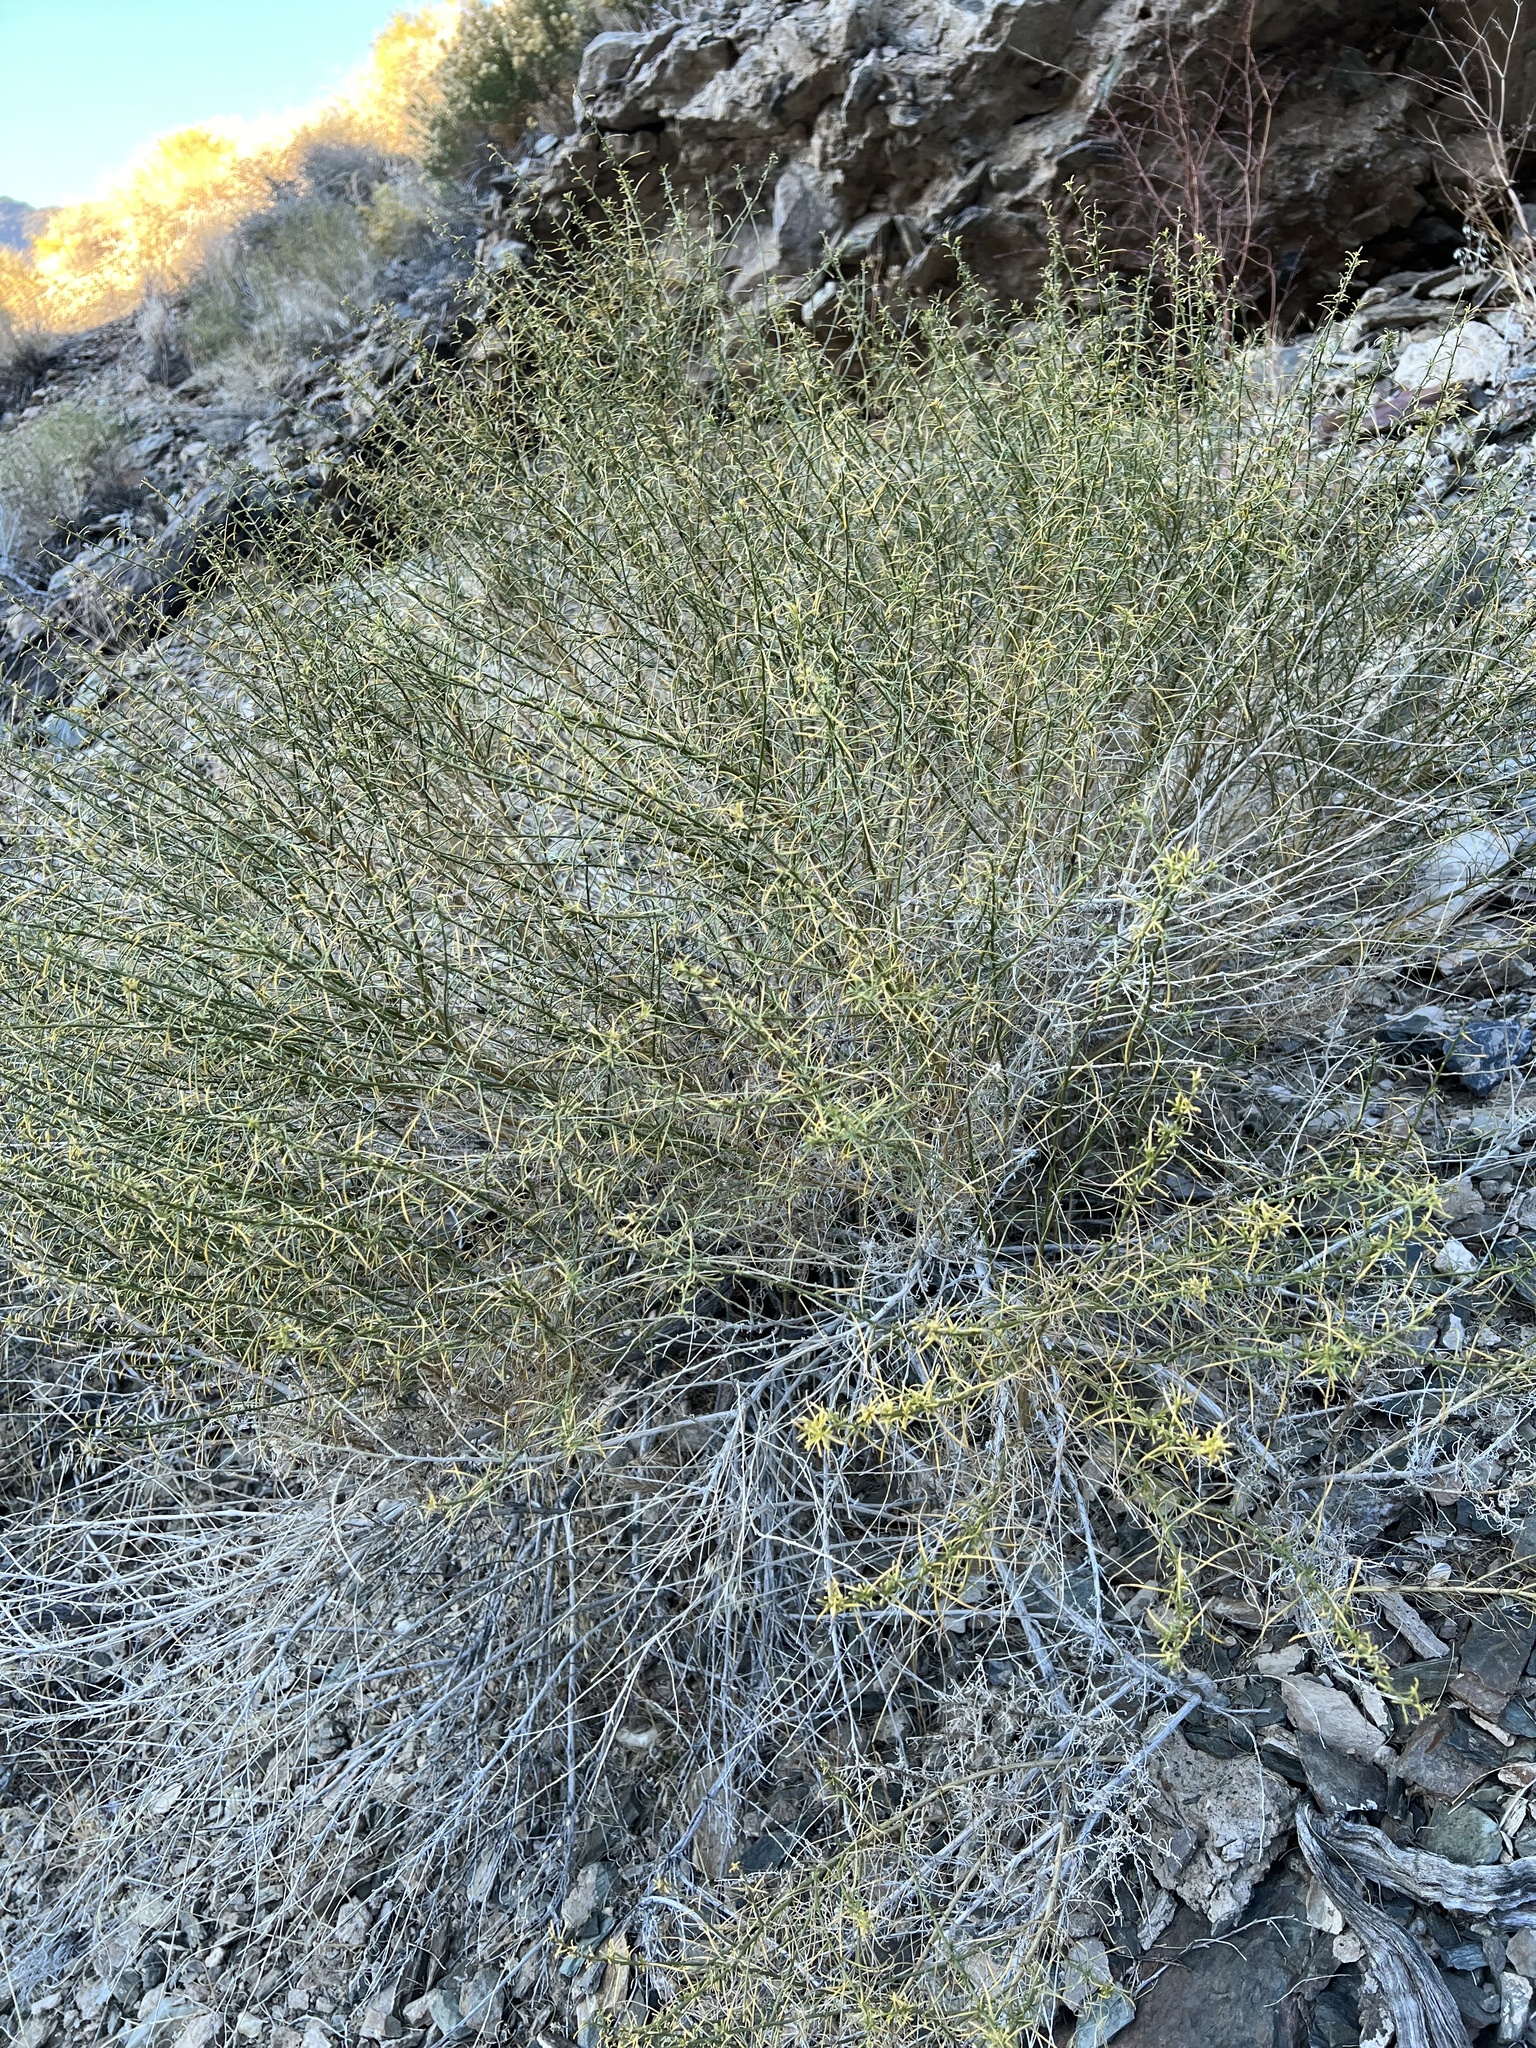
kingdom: Plantae
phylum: Tracheophyta
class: Magnoliopsida
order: Asterales
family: Asteraceae
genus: Ambrosia
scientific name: Ambrosia salsola
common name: Burrobrush
